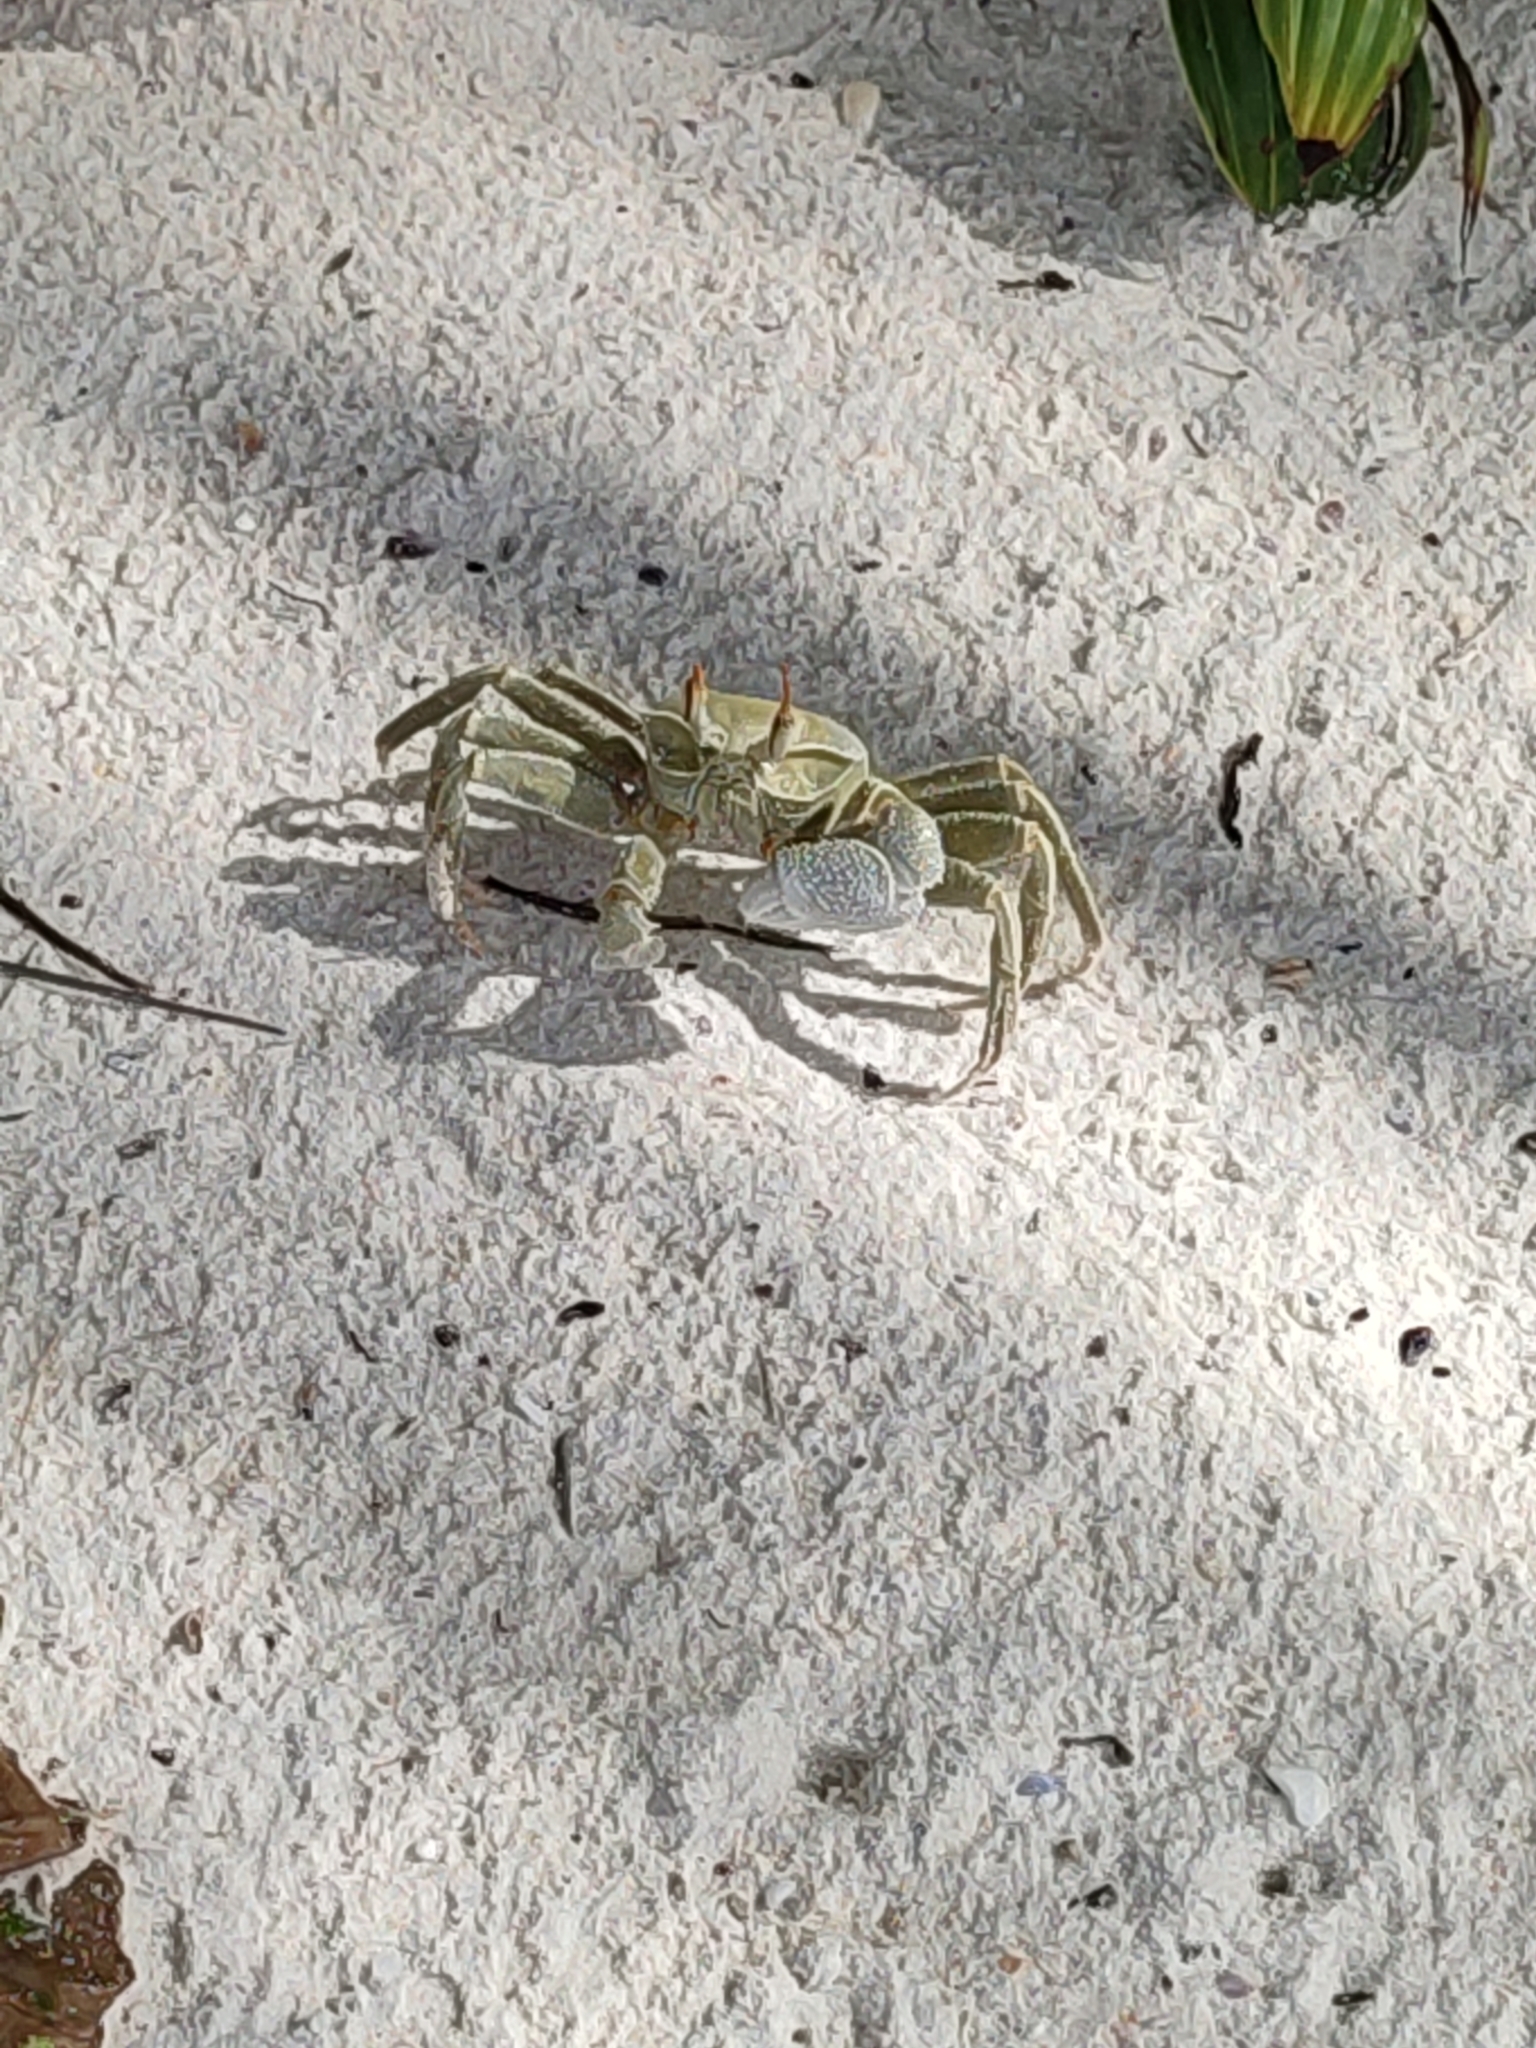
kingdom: Animalia
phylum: Arthropoda
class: Malacostraca
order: Decapoda
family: Ocypodidae
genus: Ocypode
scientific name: Ocypode ceratophthalmus
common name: Indo-pacific ghost crab
